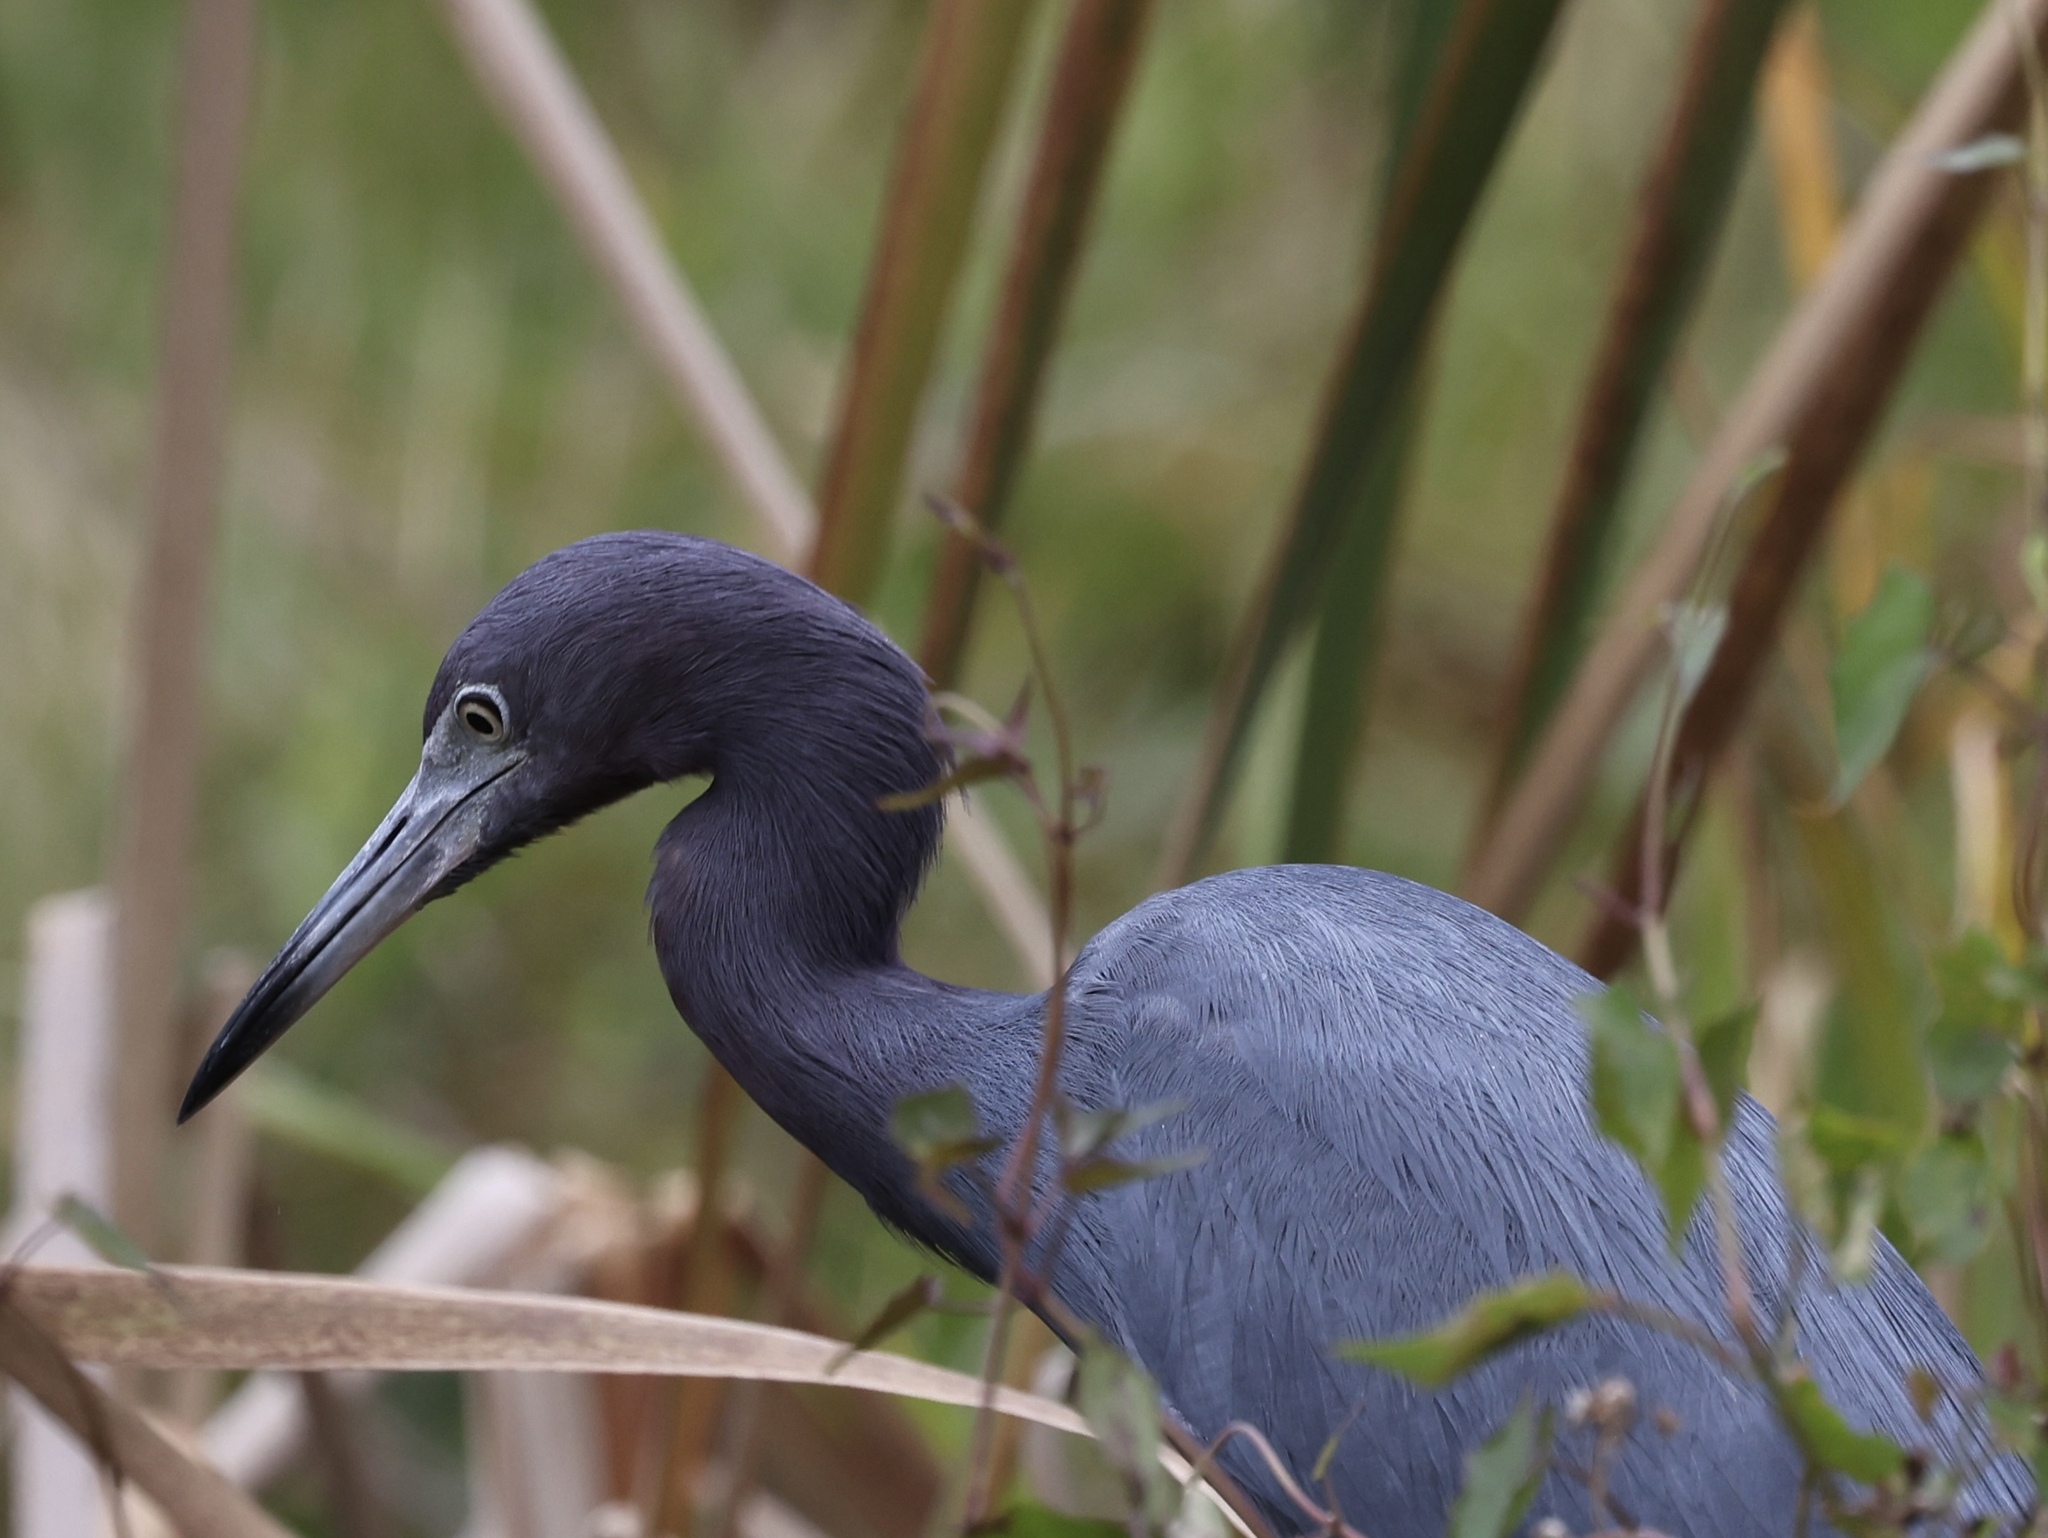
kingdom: Animalia
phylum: Chordata
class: Aves
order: Pelecaniformes
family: Ardeidae
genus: Egretta
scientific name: Egretta caerulea
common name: Little blue heron
